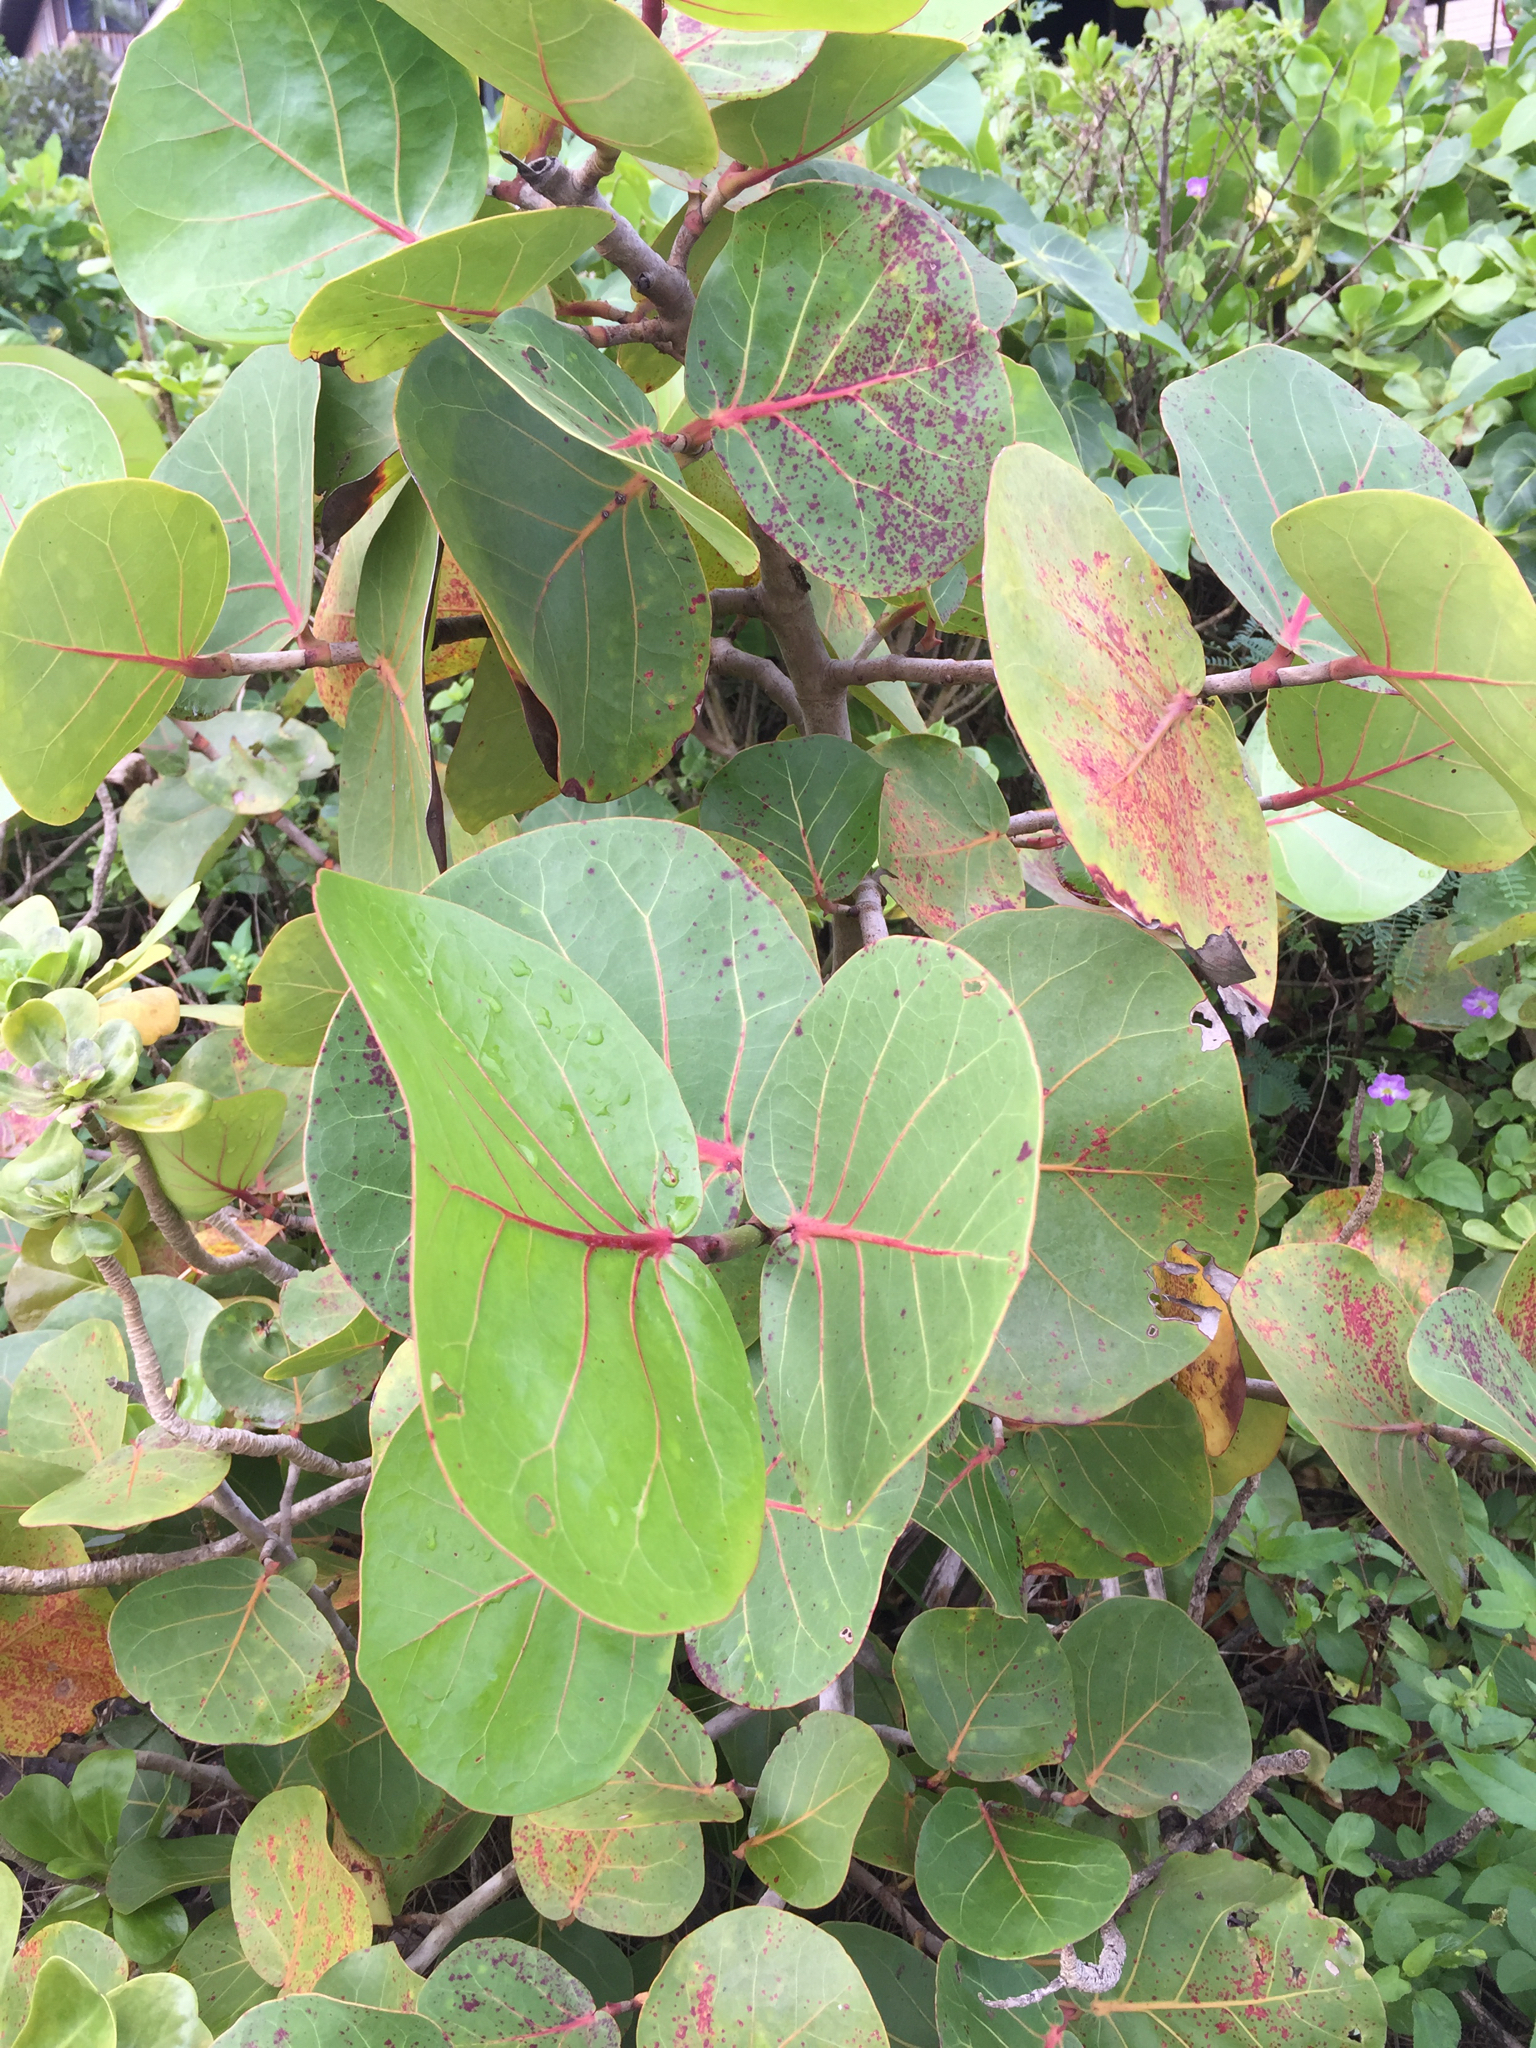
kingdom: Plantae
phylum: Tracheophyta
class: Magnoliopsida
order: Caryophyllales
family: Polygonaceae
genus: Coccoloba
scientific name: Coccoloba uvifera
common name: Seagrape
